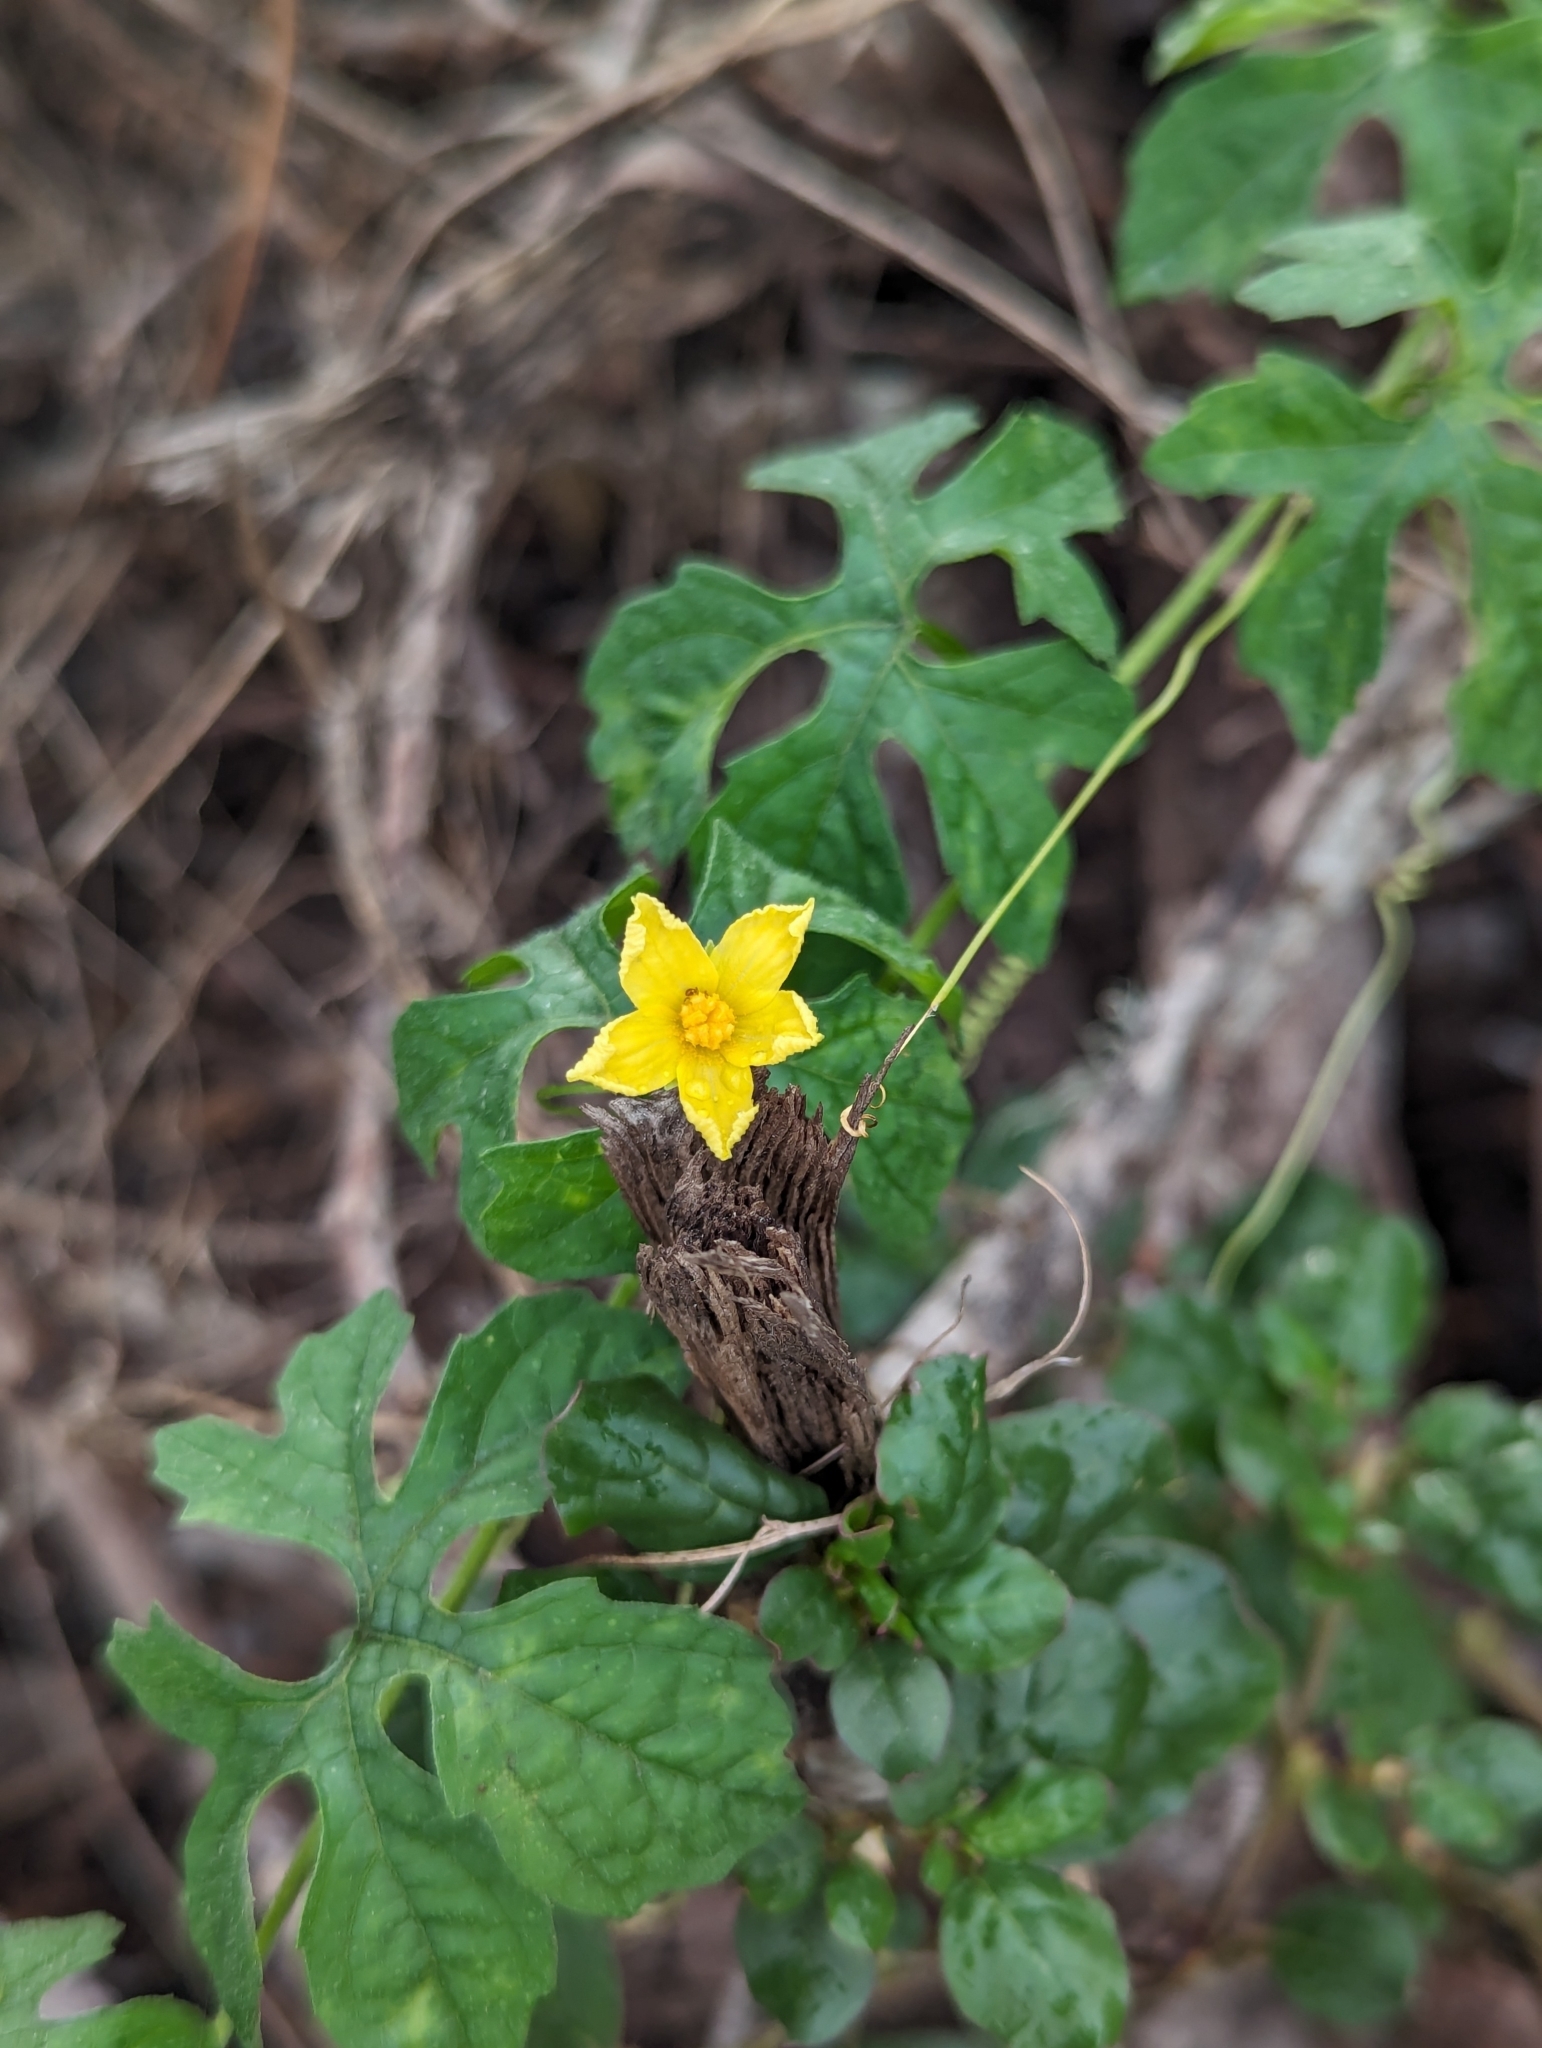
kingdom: Plantae
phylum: Tracheophyta
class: Magnoliopsida
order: Cucurbitales
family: Cucurbitaceae
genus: Momordica
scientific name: Momordica charantia
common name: Balsampear
